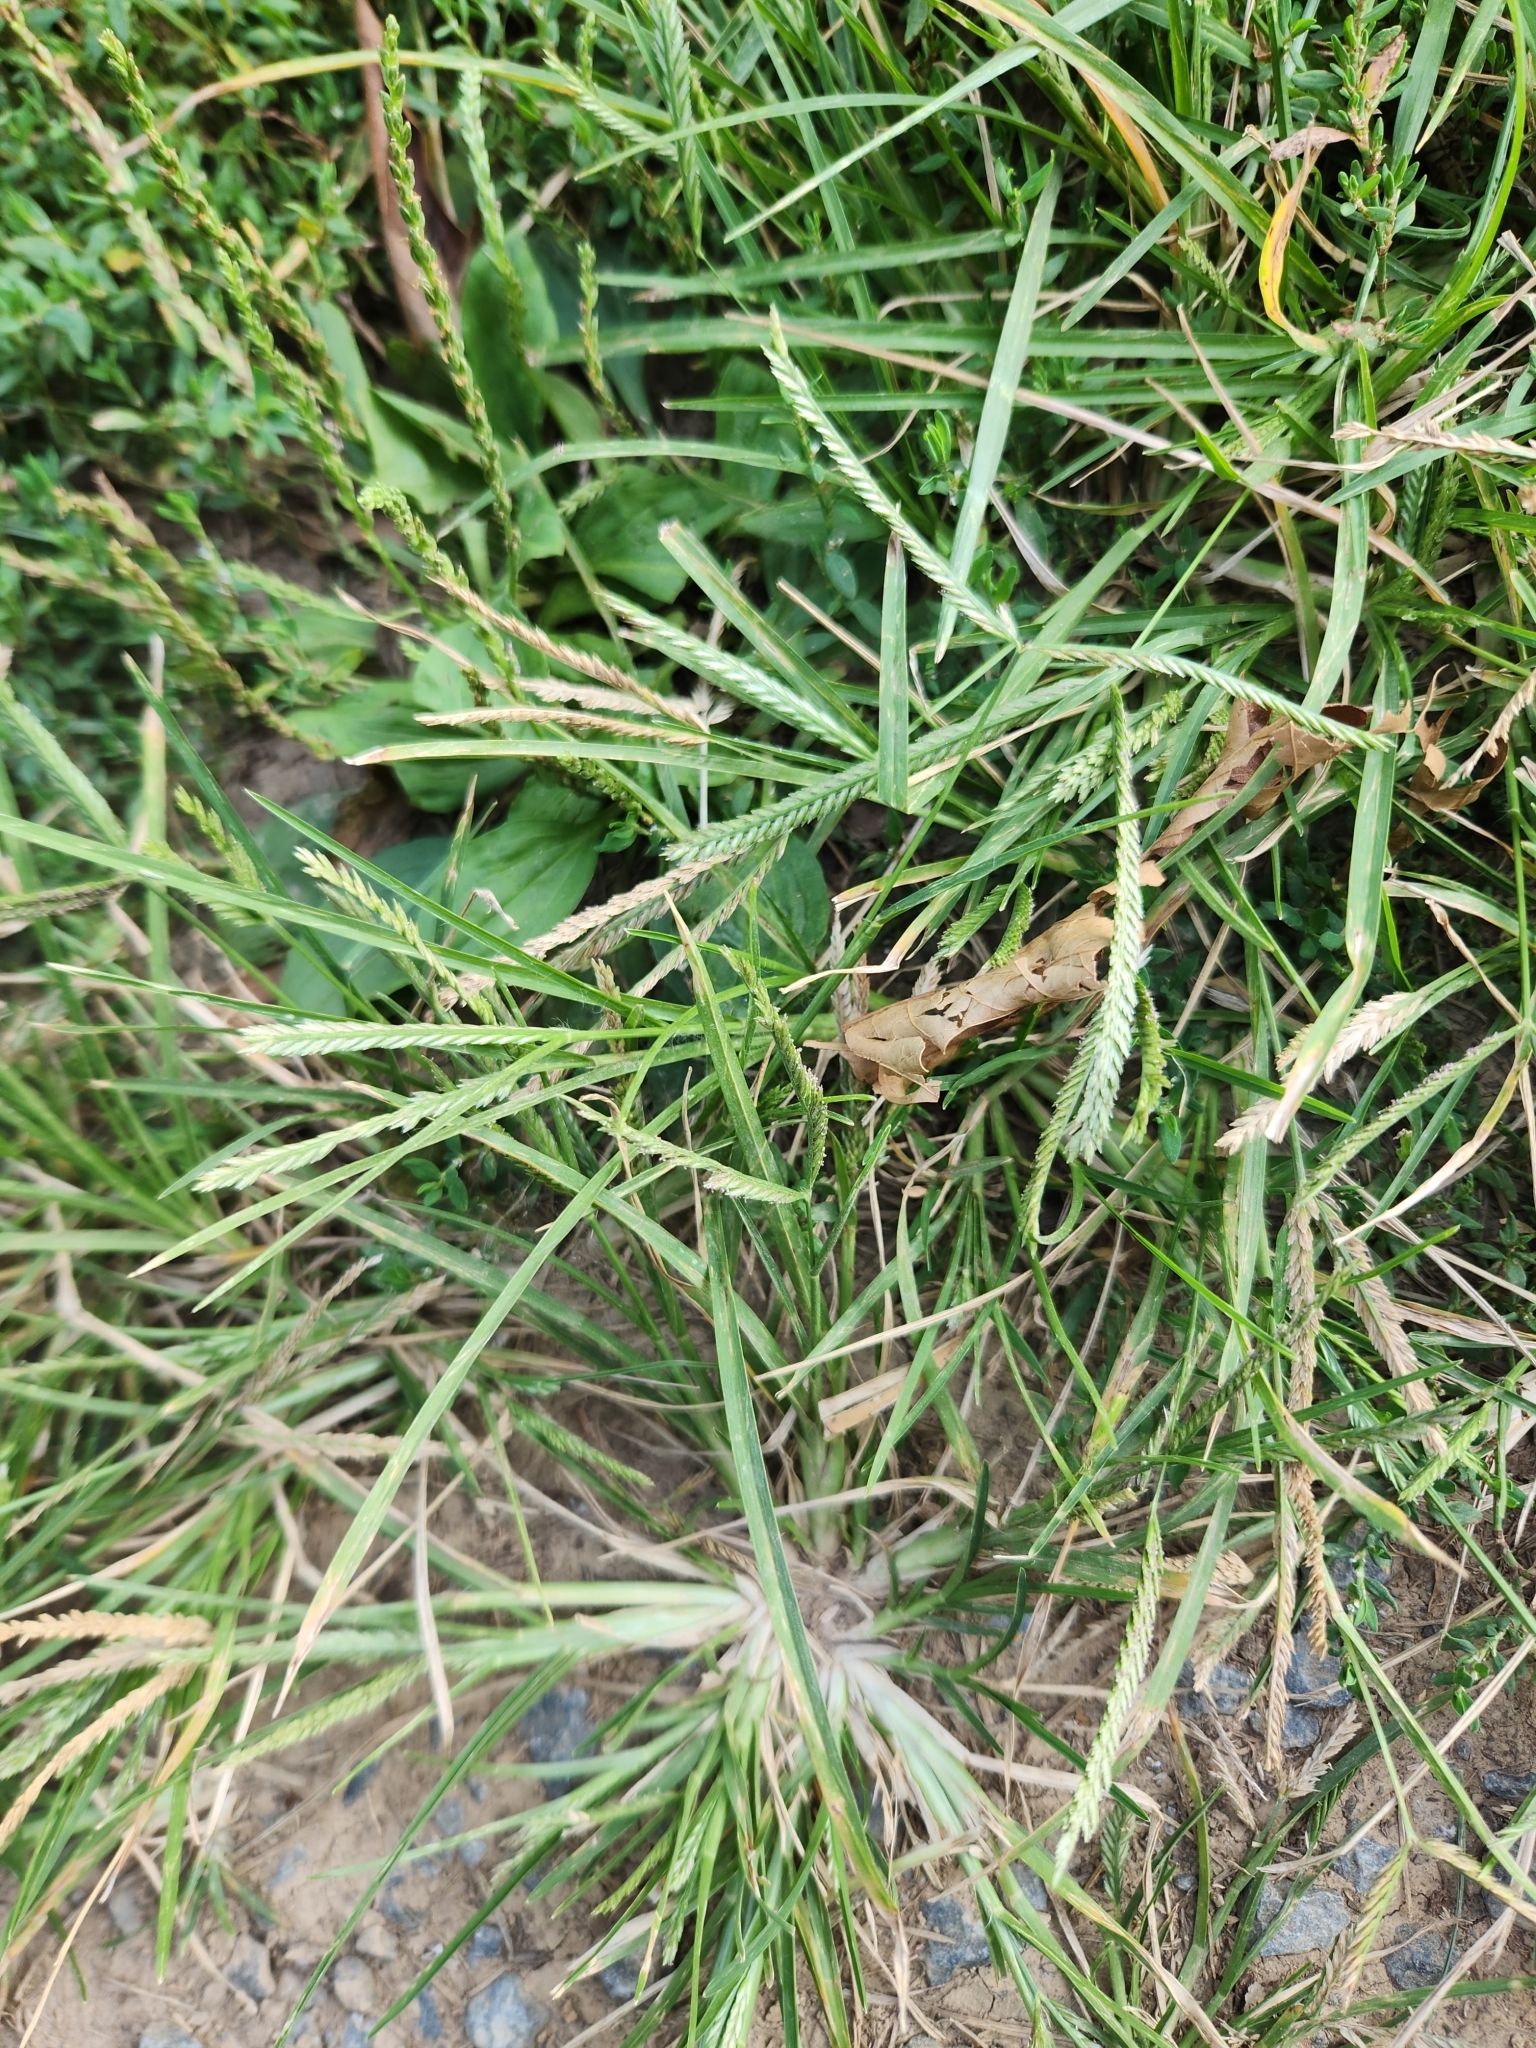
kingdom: Plantae
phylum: Tracheophyta
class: Liliopsida
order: Poales
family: Poaceae
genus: Eleusine
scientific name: Eleusine indica
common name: Yard-grass
